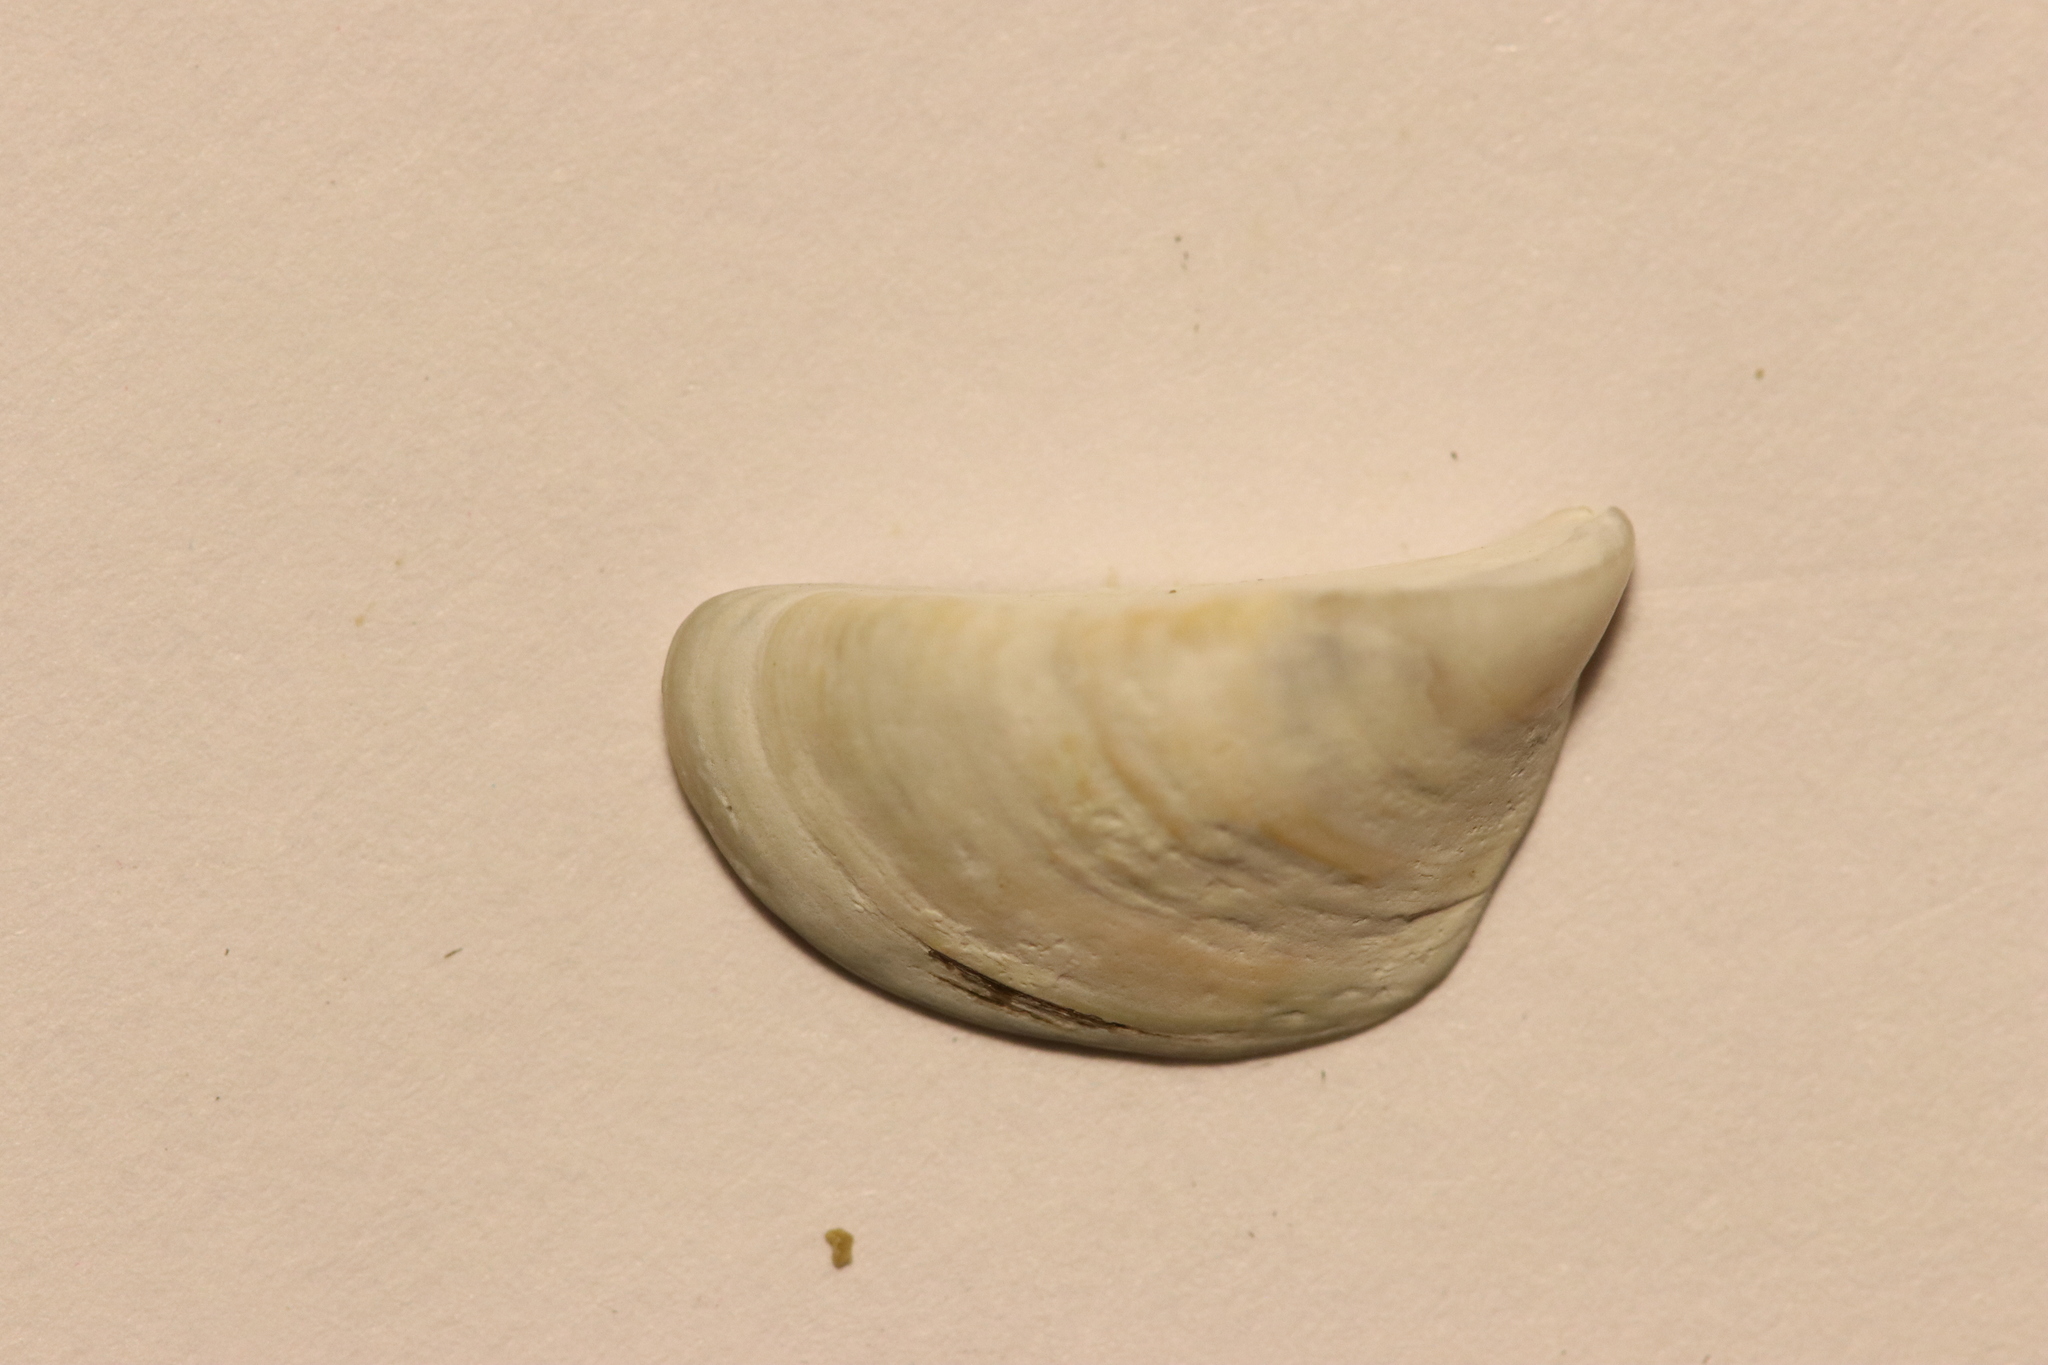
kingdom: Animalia
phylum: Mollusca
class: Bivalvia
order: Myida
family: Dreissenidae
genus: Dreissena
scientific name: Dreissena polymorpha
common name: Zebra mussel
